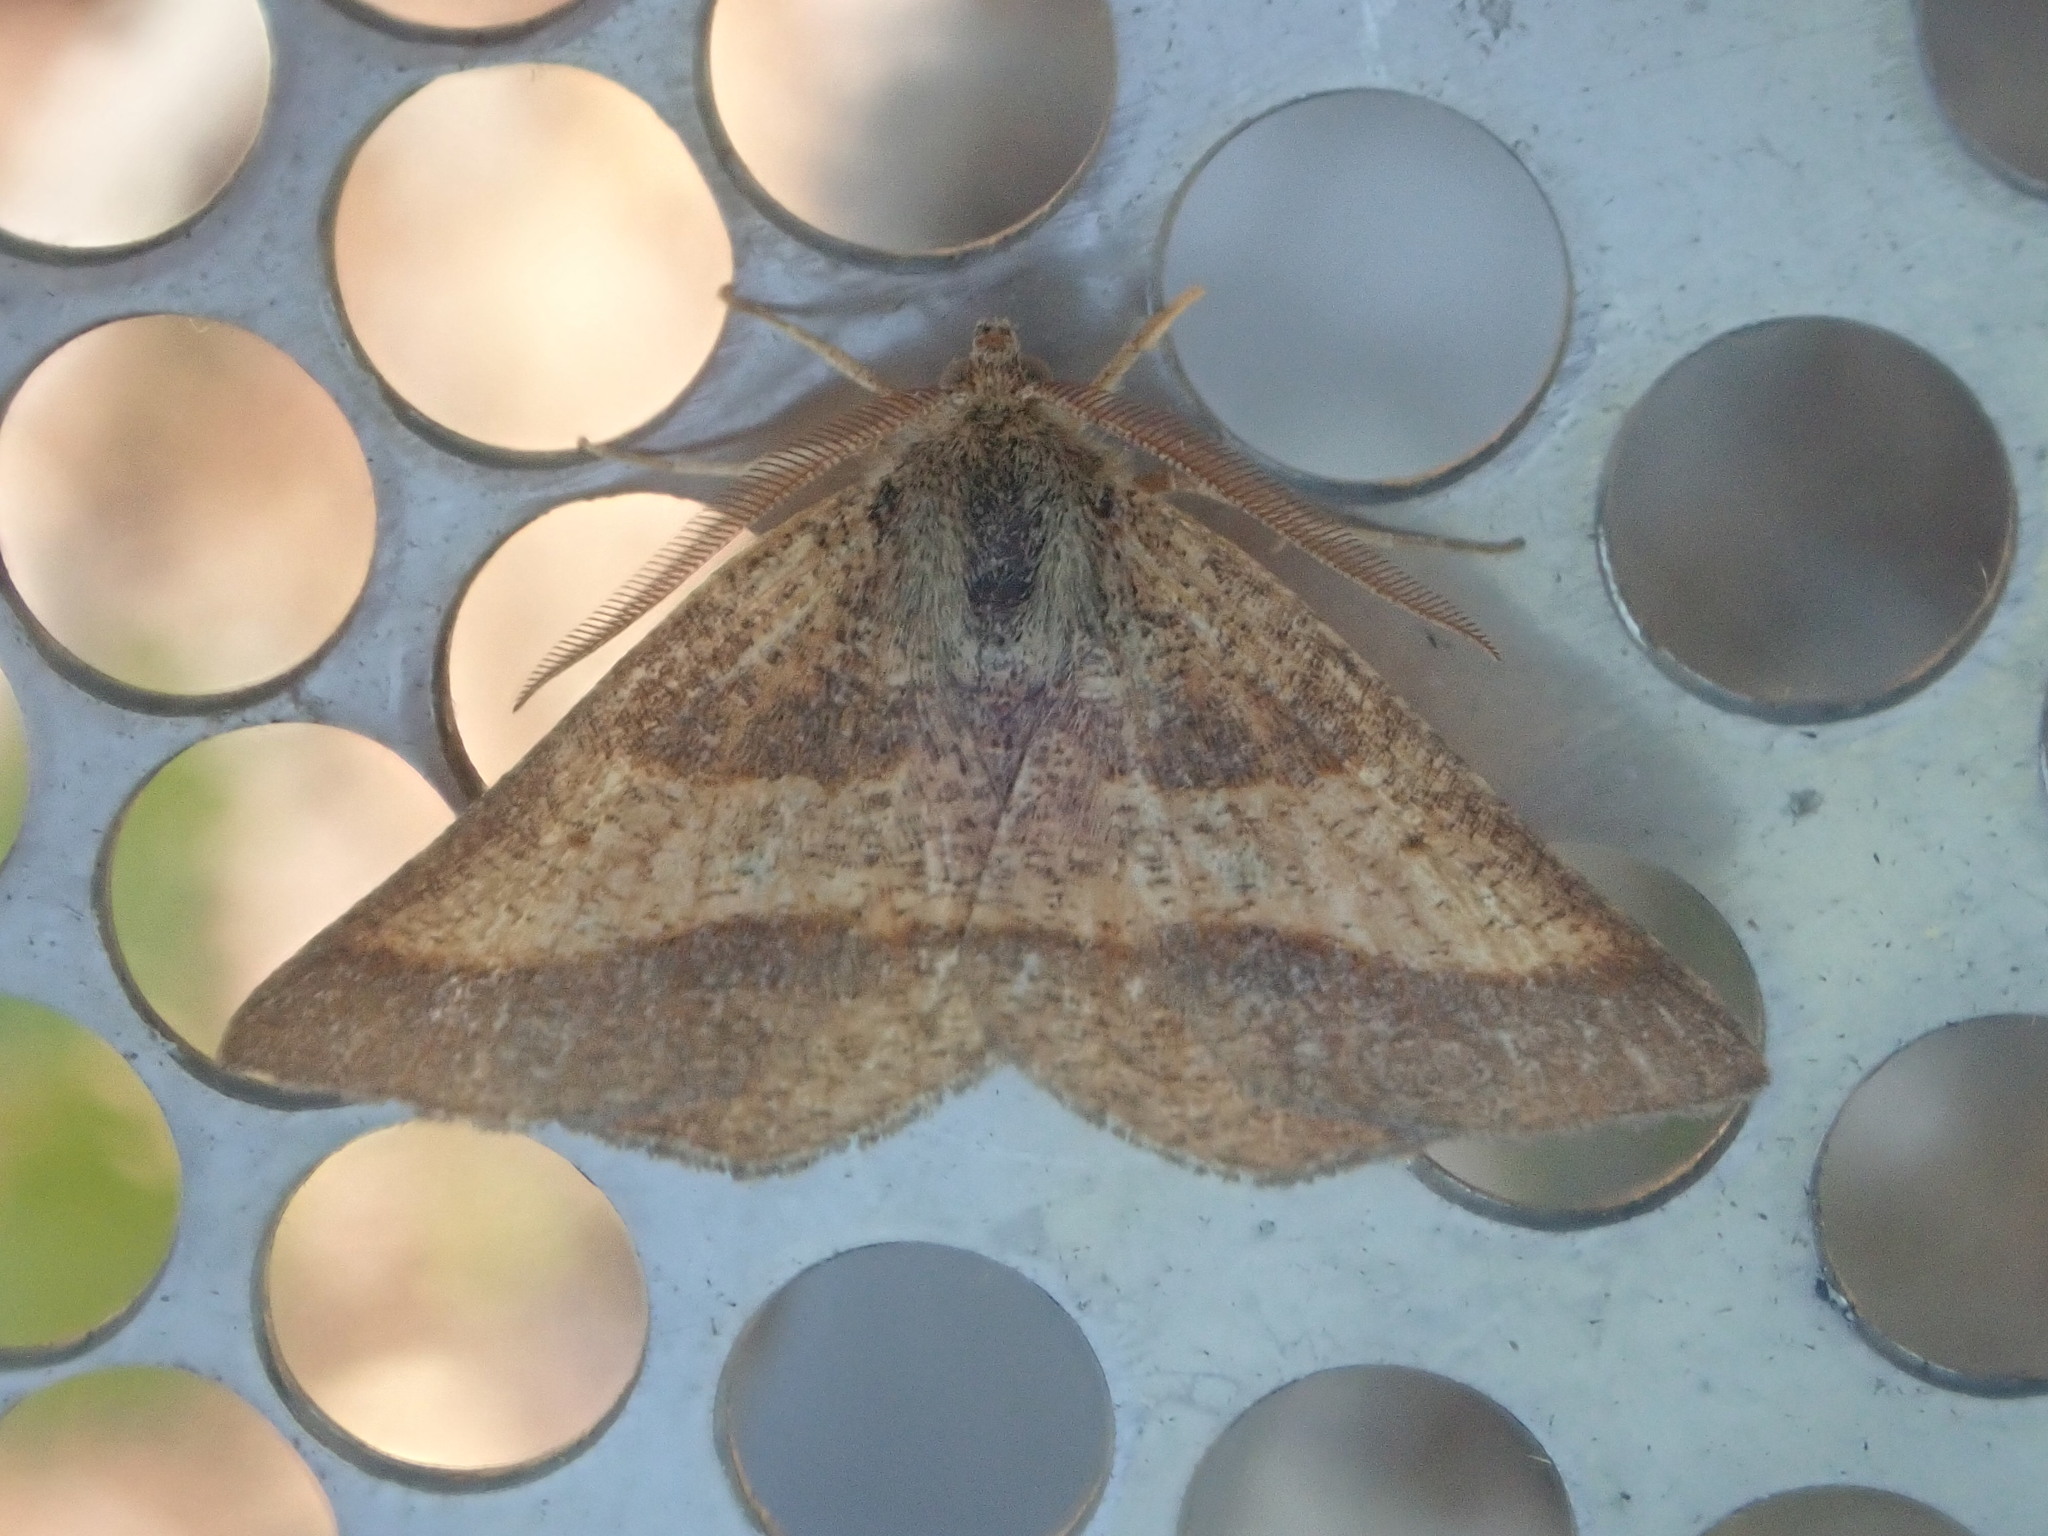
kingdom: Animalia
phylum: Arthropoda
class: Insecta
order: Lepidoptera
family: Geometridae
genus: Metarranthis
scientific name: Metarranthis obfirmaria
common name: Yellow-washed metarranthis
